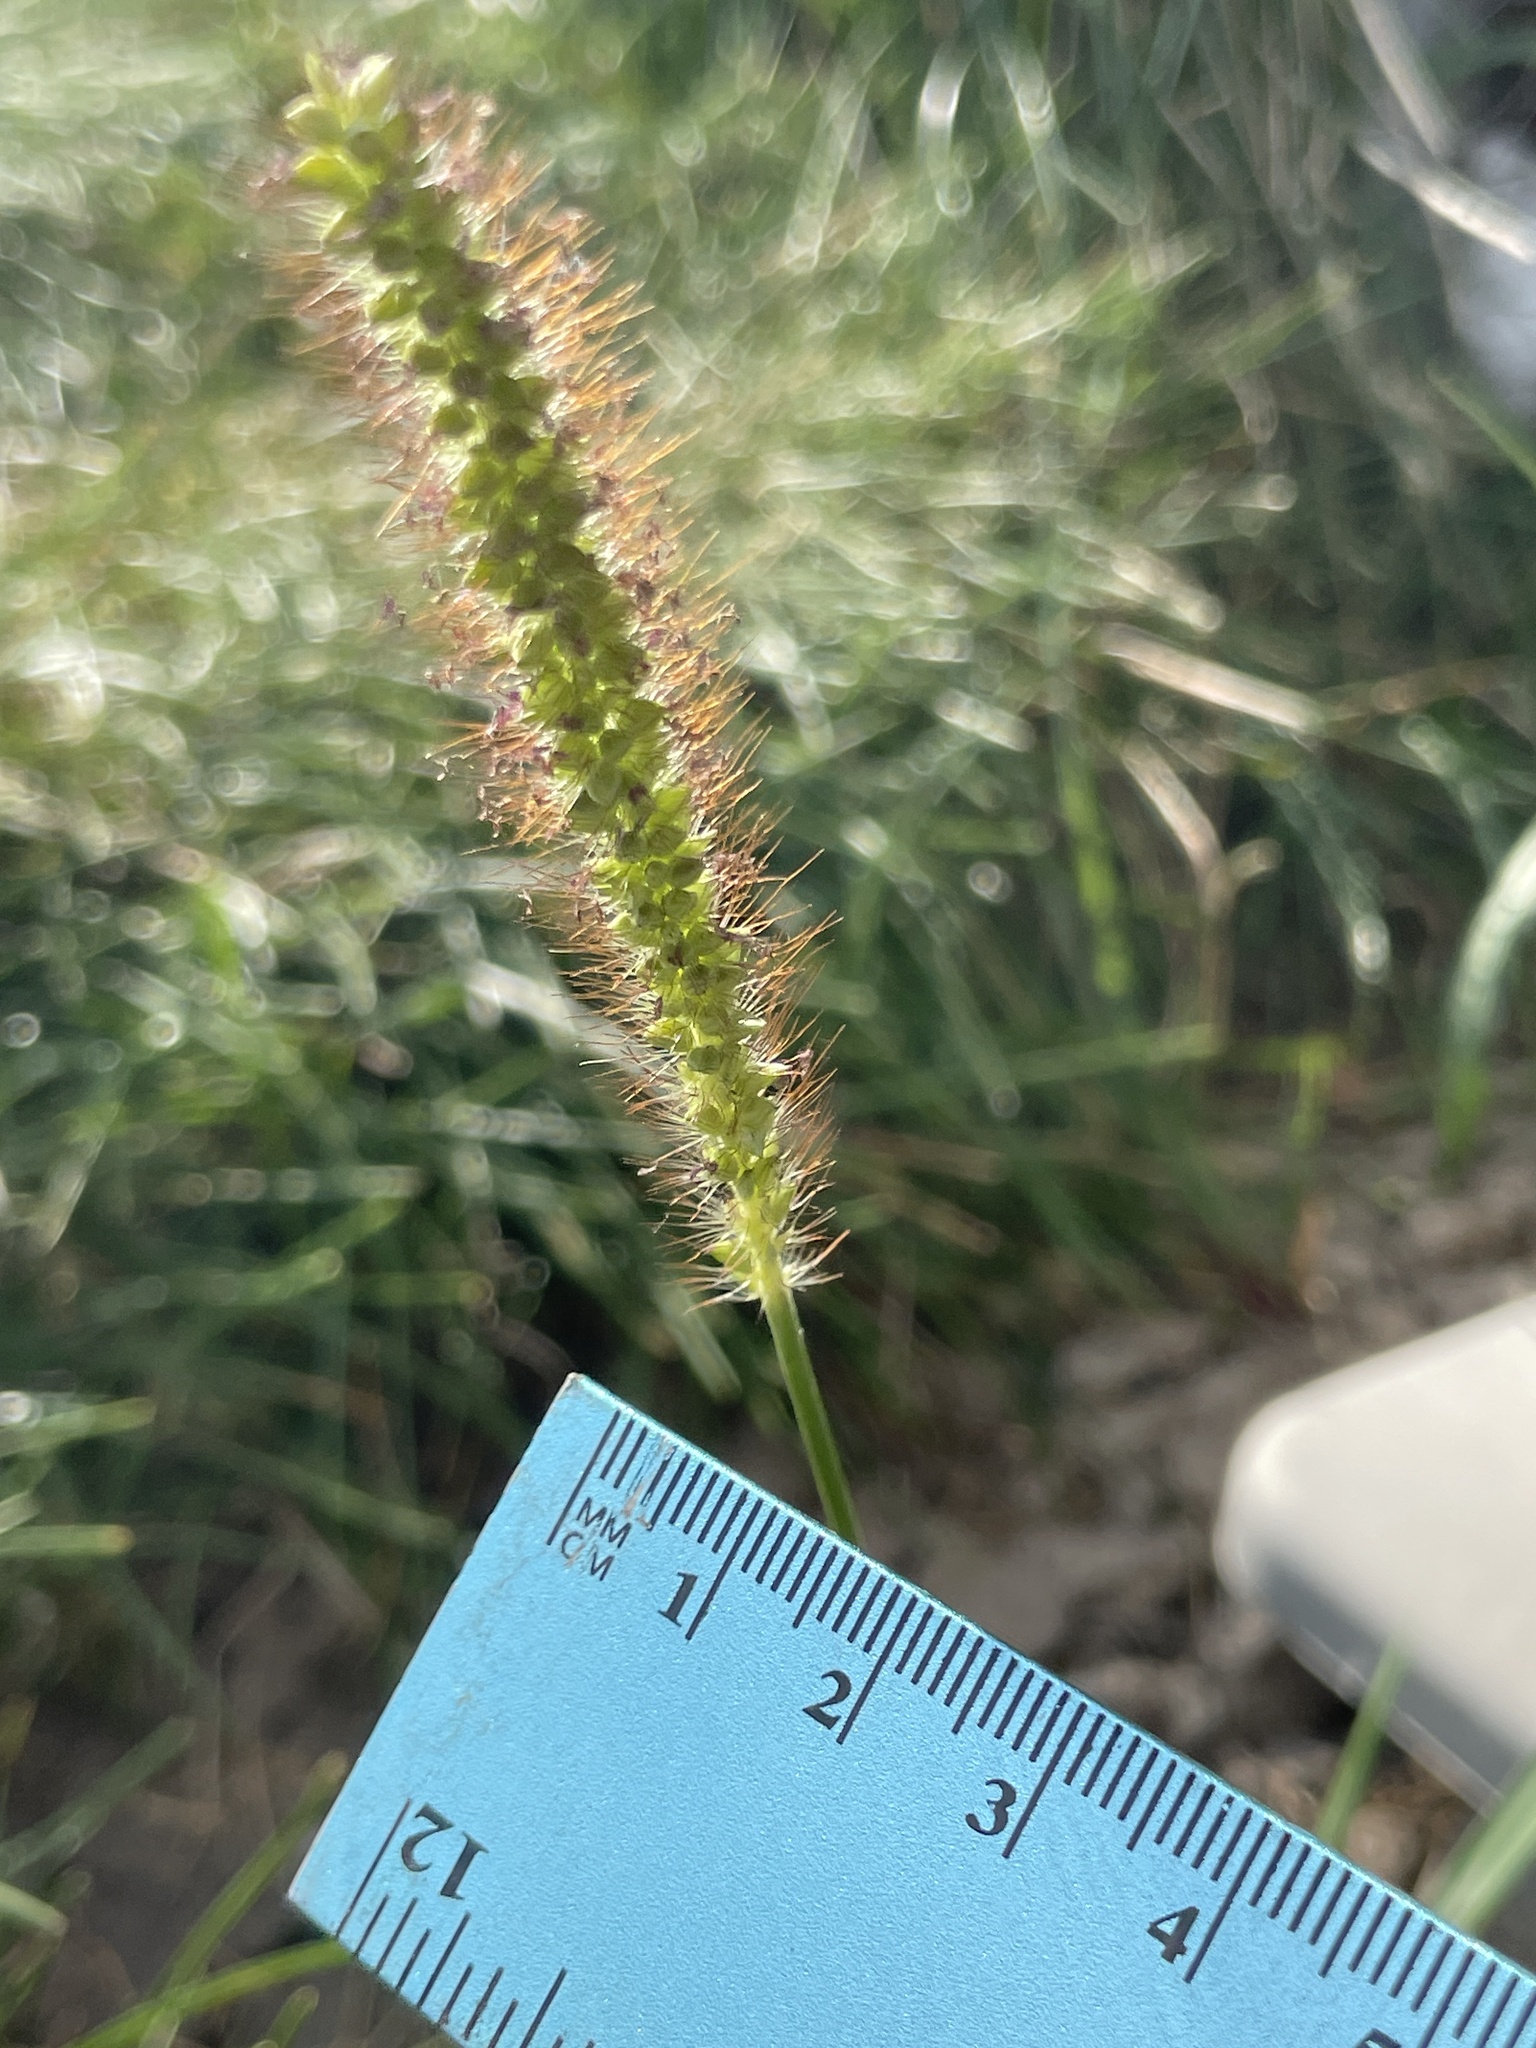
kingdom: Plantae
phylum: Tracheophyta
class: Liliopsida
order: Poales
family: Poaceae
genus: Setaria
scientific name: Setaria pumila
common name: Yellow bristle-grass
